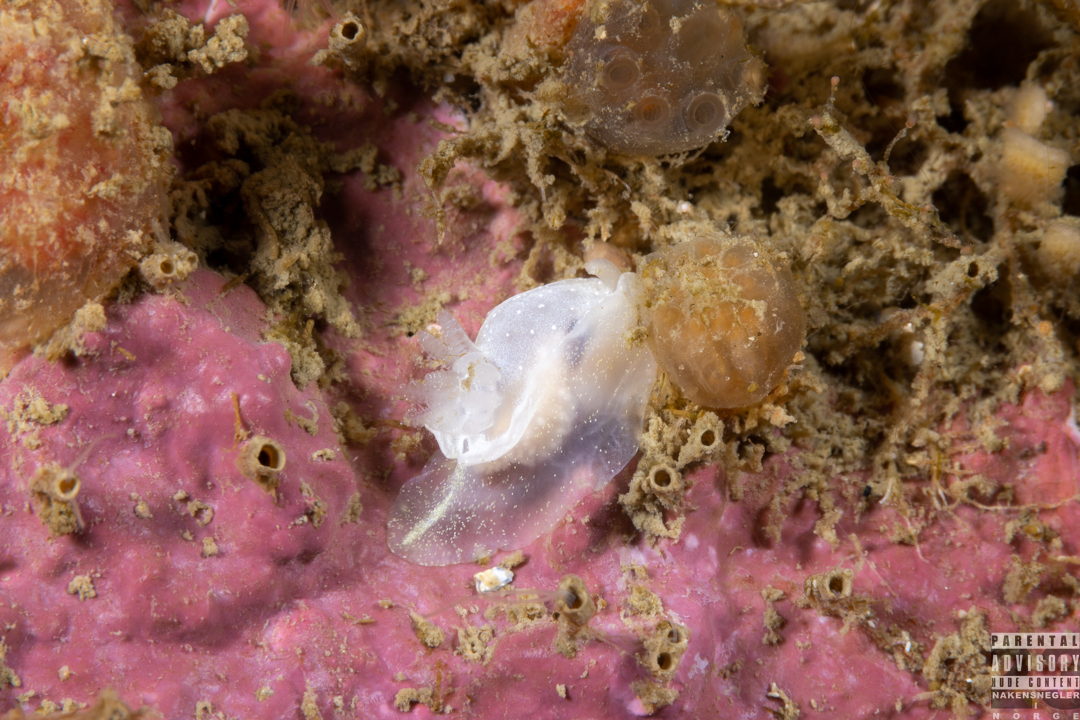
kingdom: Animalia
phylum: Mollusca
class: Gastropoda
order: Nudibranchia
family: Goniodorididae
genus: Okenia
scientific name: Okenia
